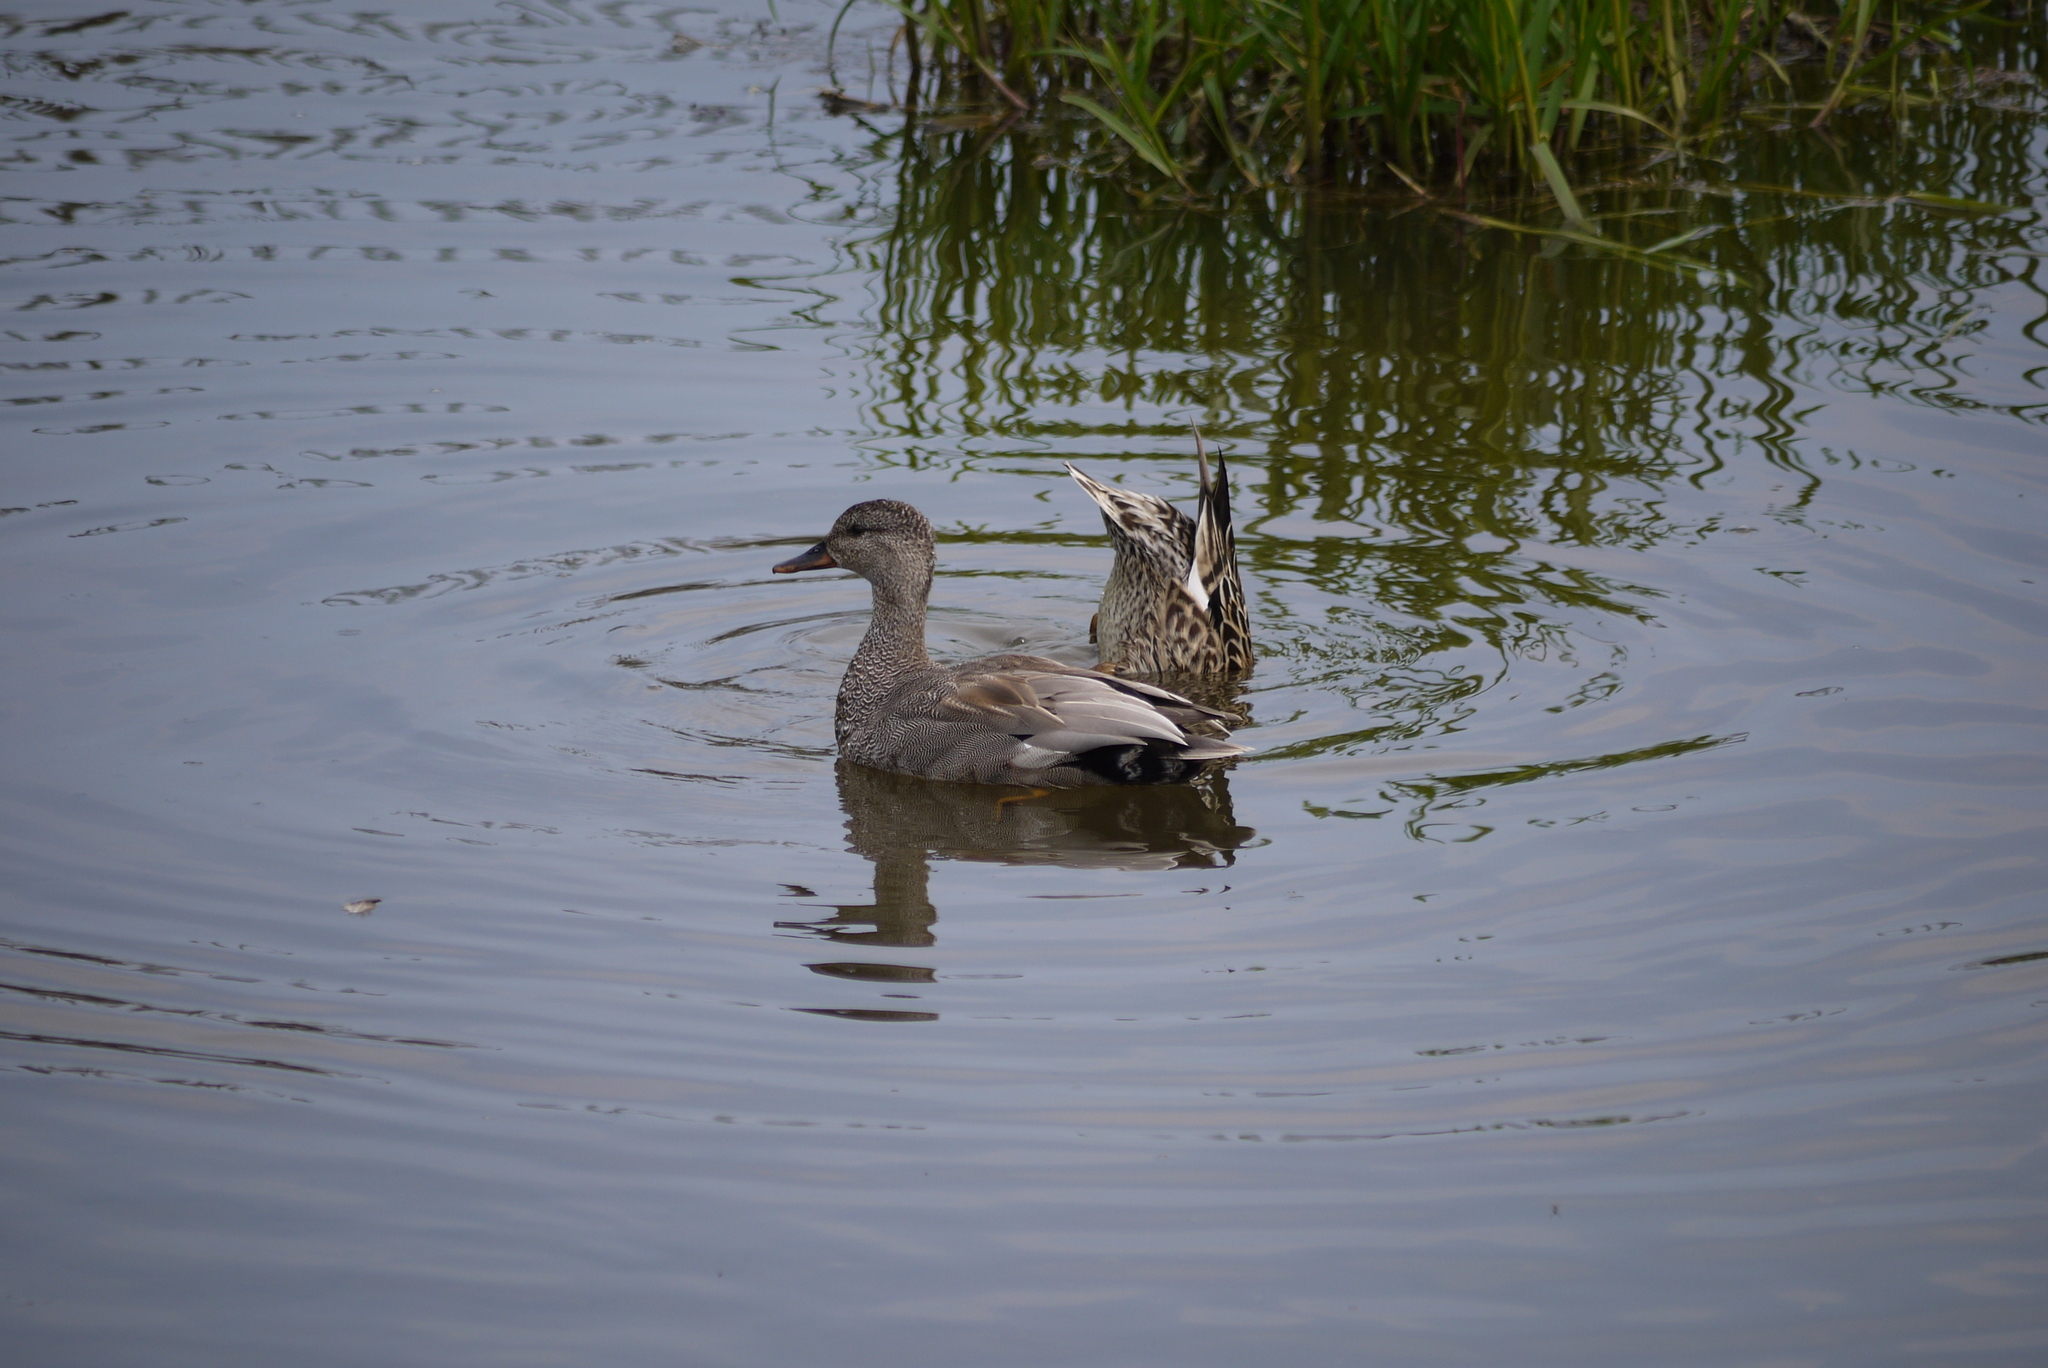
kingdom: Animalia
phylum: Chordata
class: Aves
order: Anseriformes
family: Anatidae
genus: Mareca
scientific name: Mareca strepera
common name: Gadwall
